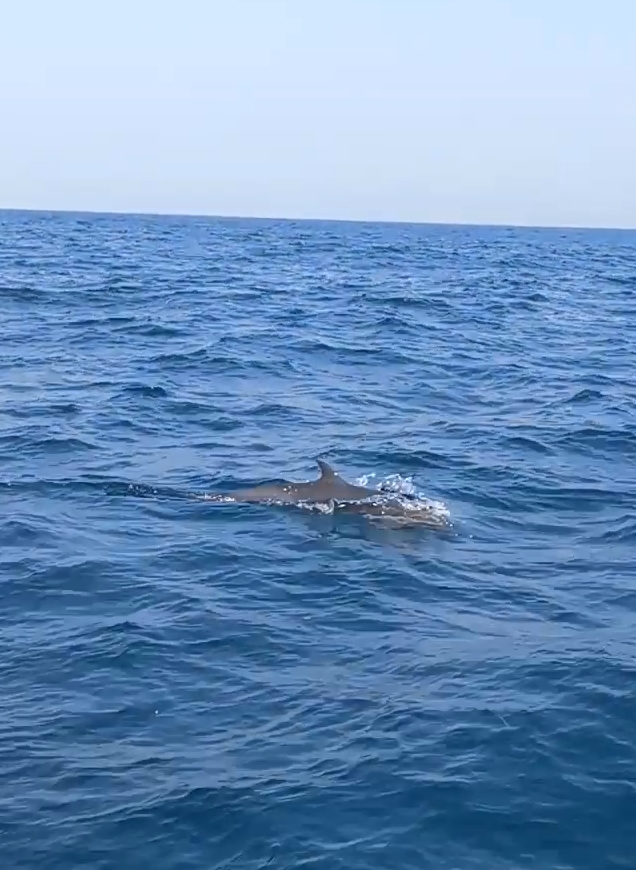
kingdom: Animalia
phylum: Chordata
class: Mammalia
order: Cetacea
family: Delphinidae
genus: Stenella
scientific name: Stenella attenuata
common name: Pantropical spotted dolphin
